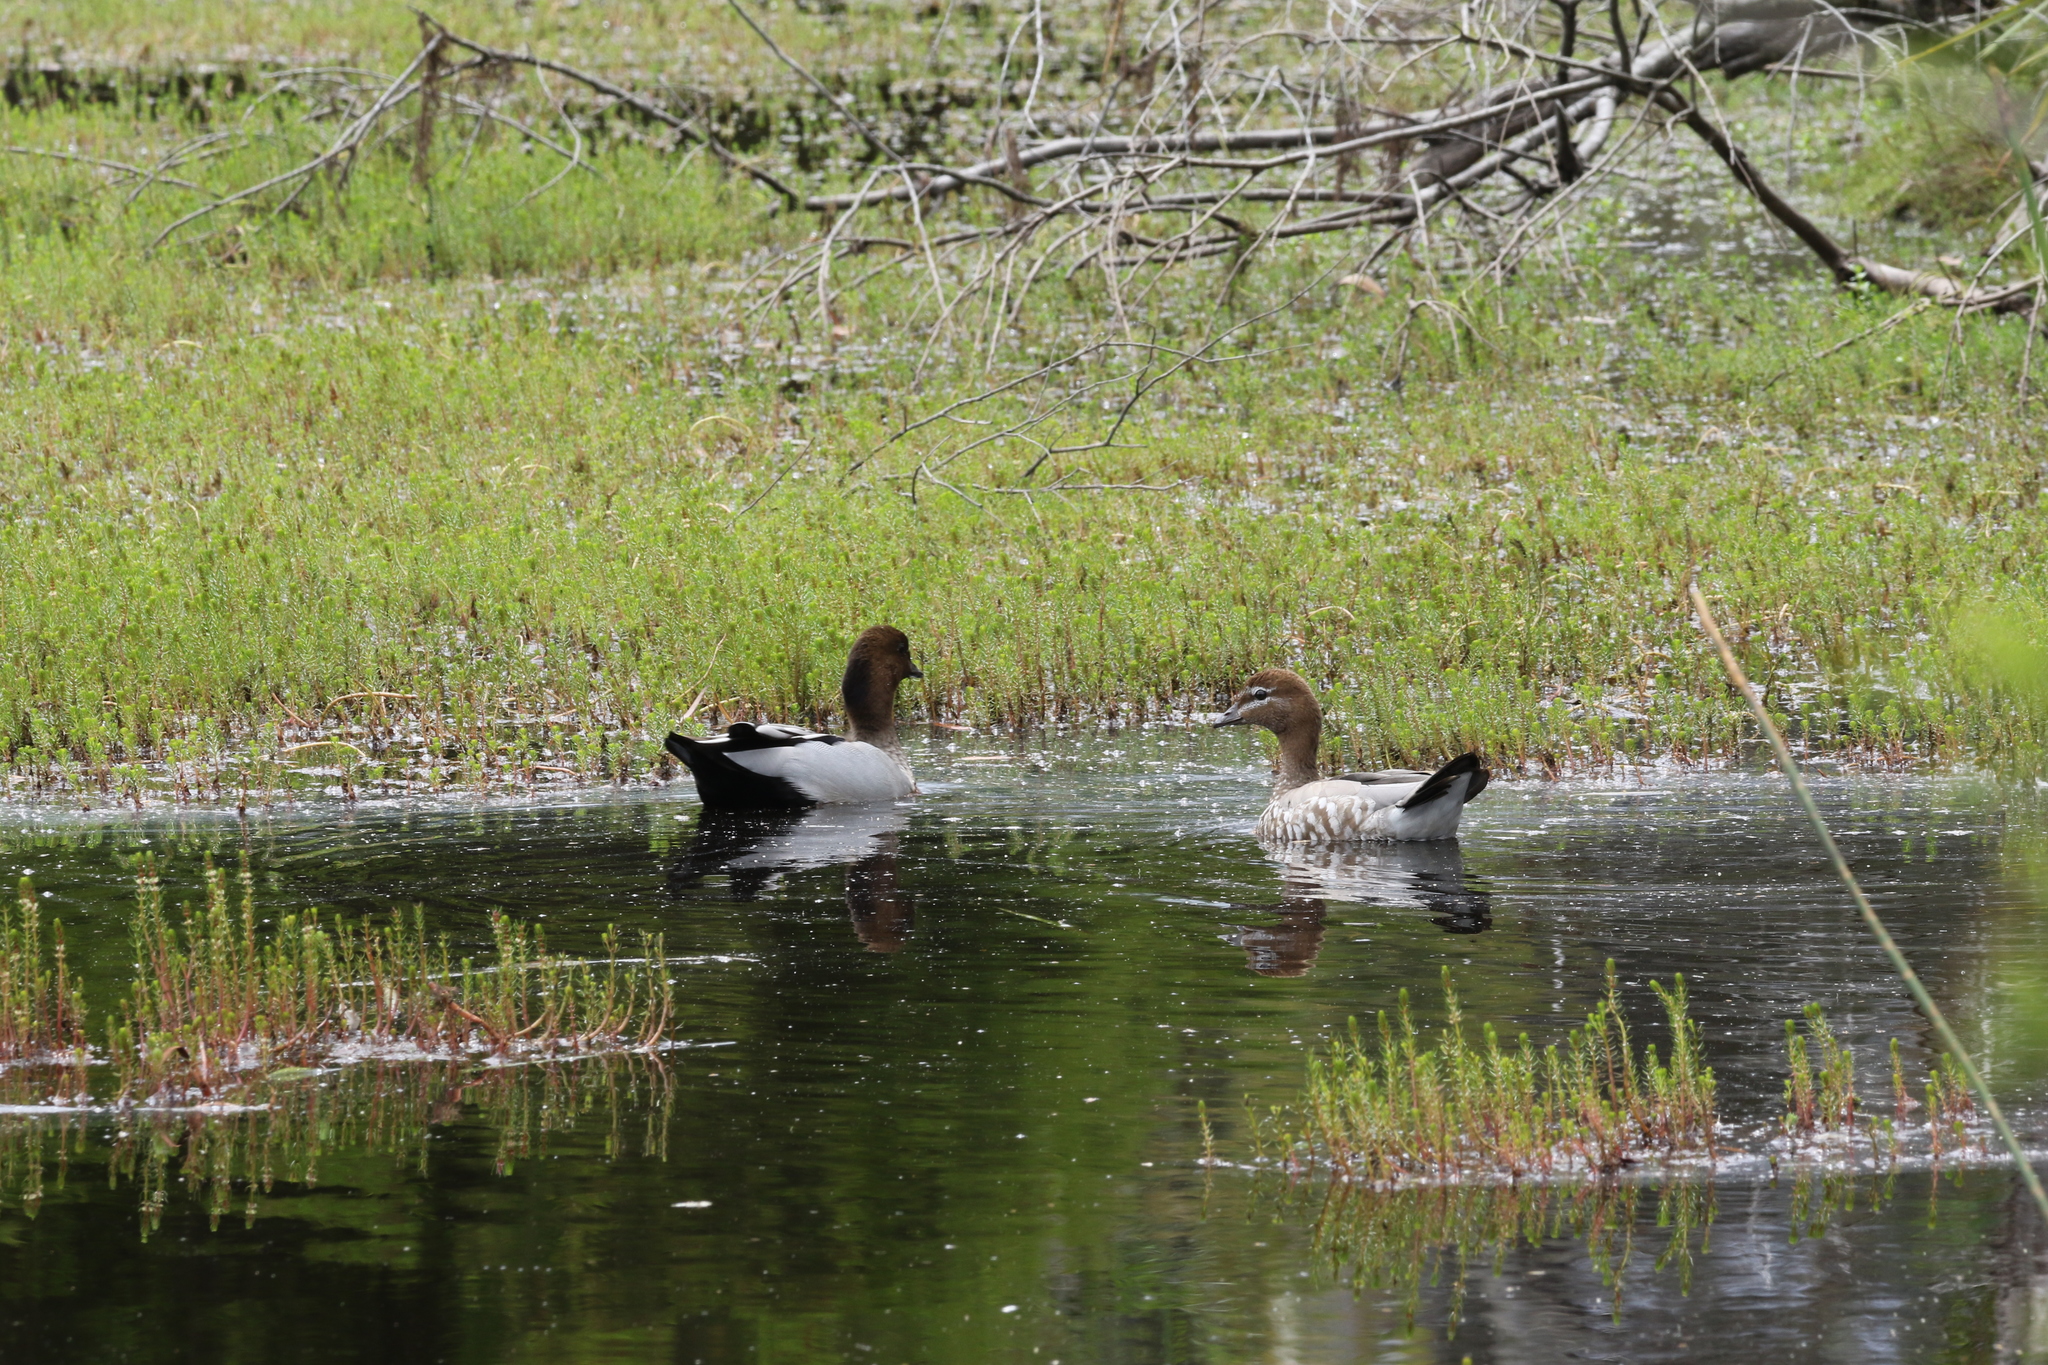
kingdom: Animalia
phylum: Chordata
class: Aves
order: Anseriformes
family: Anatidae
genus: Chenonetta
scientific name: Chenonetta jubata
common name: Maned duck
